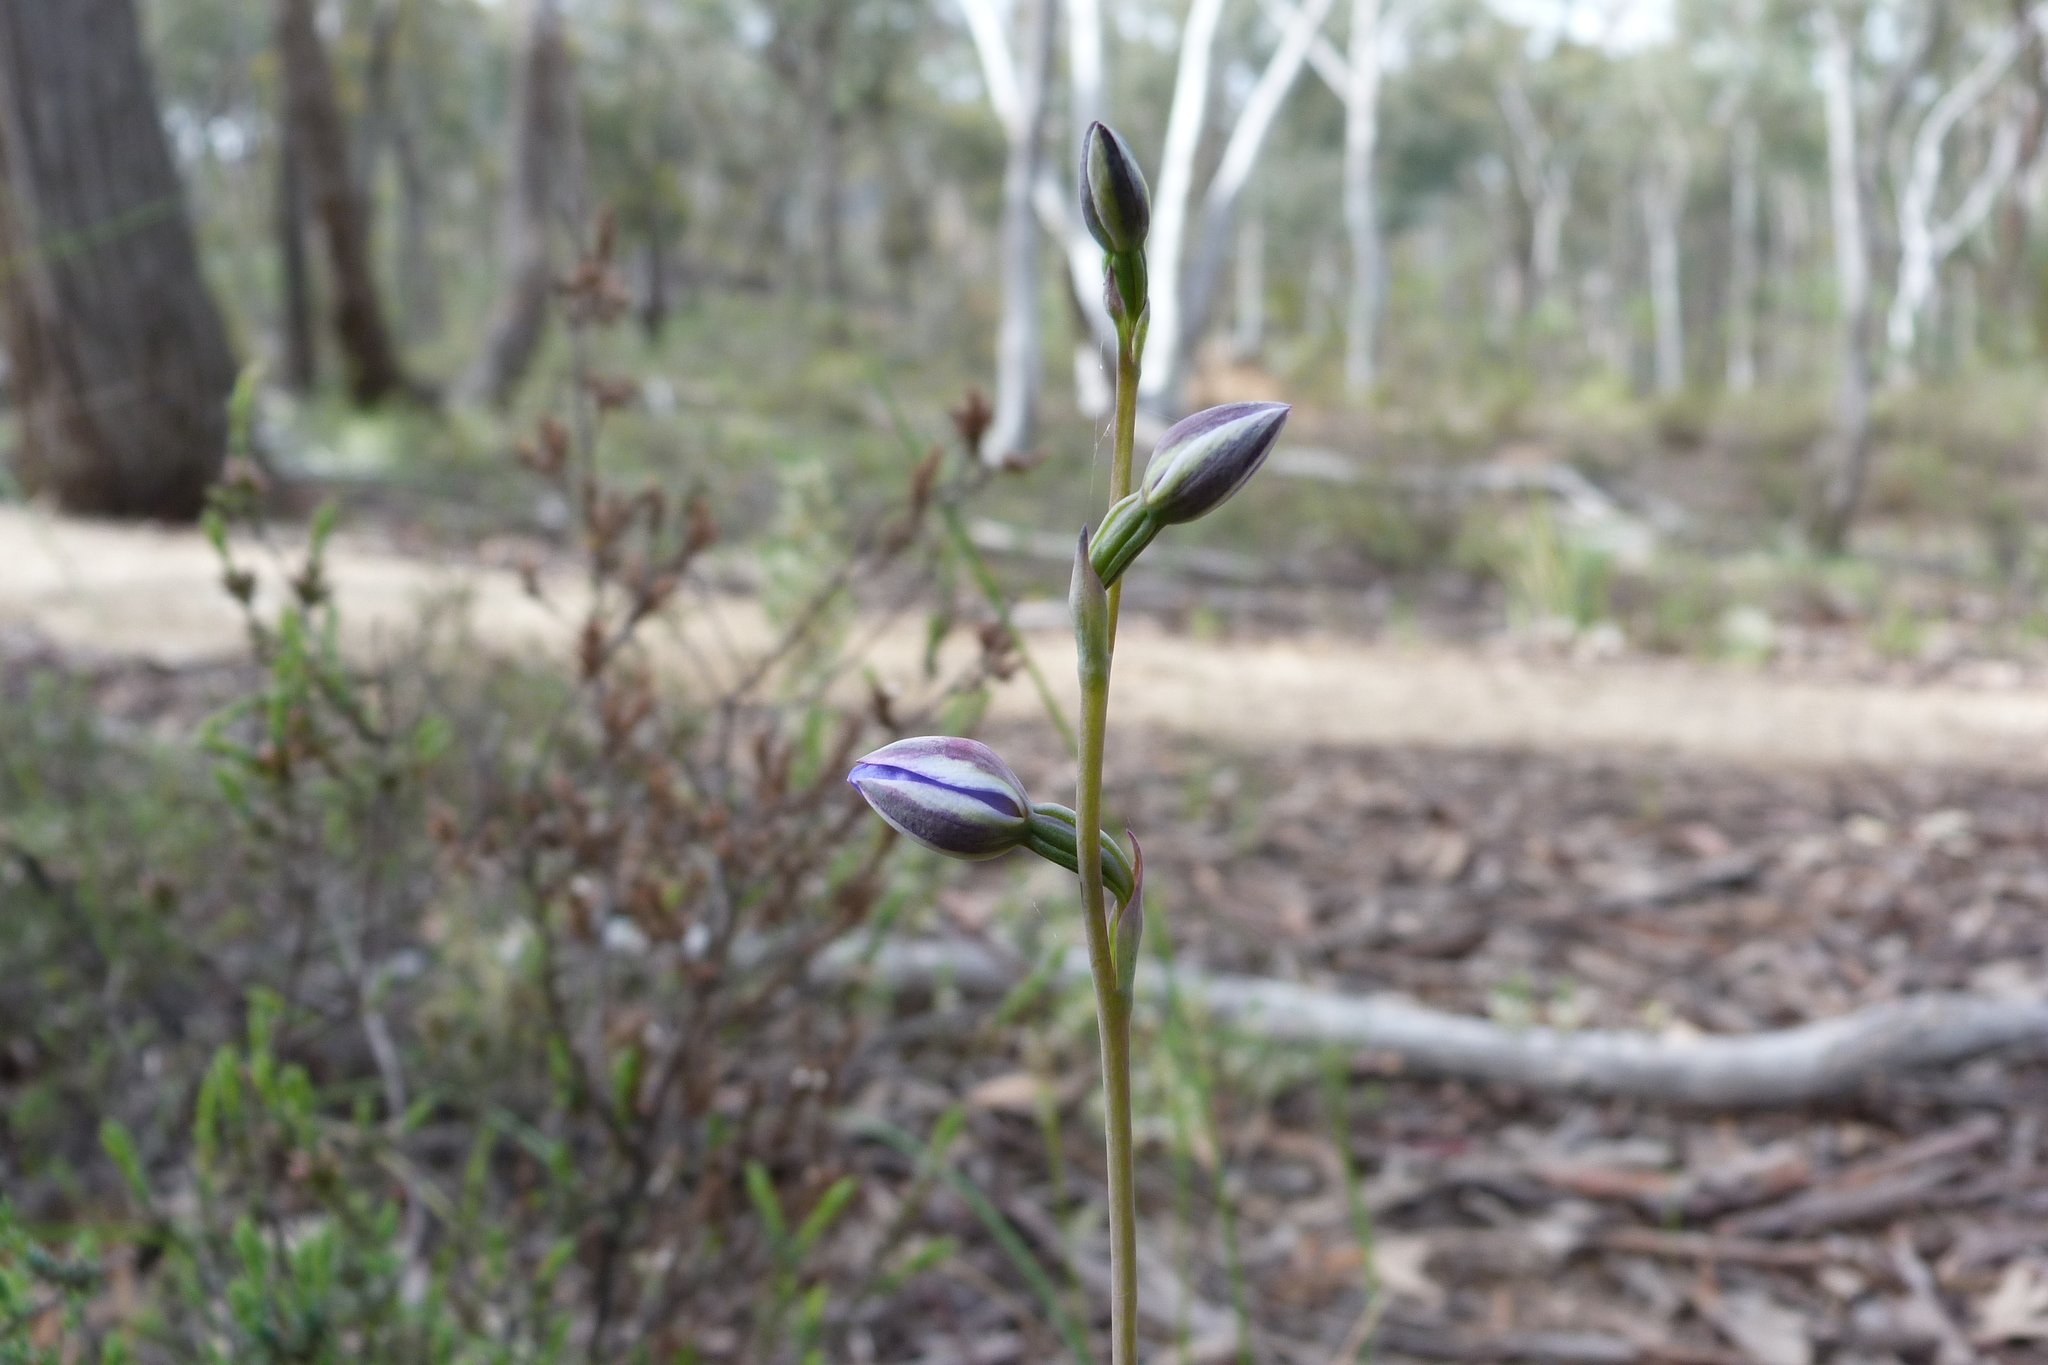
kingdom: Plantae
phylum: Tracheophyta
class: Liliopsida
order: Asparagales
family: Orchidaceae
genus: Thelymitra
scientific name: Thelymitra
